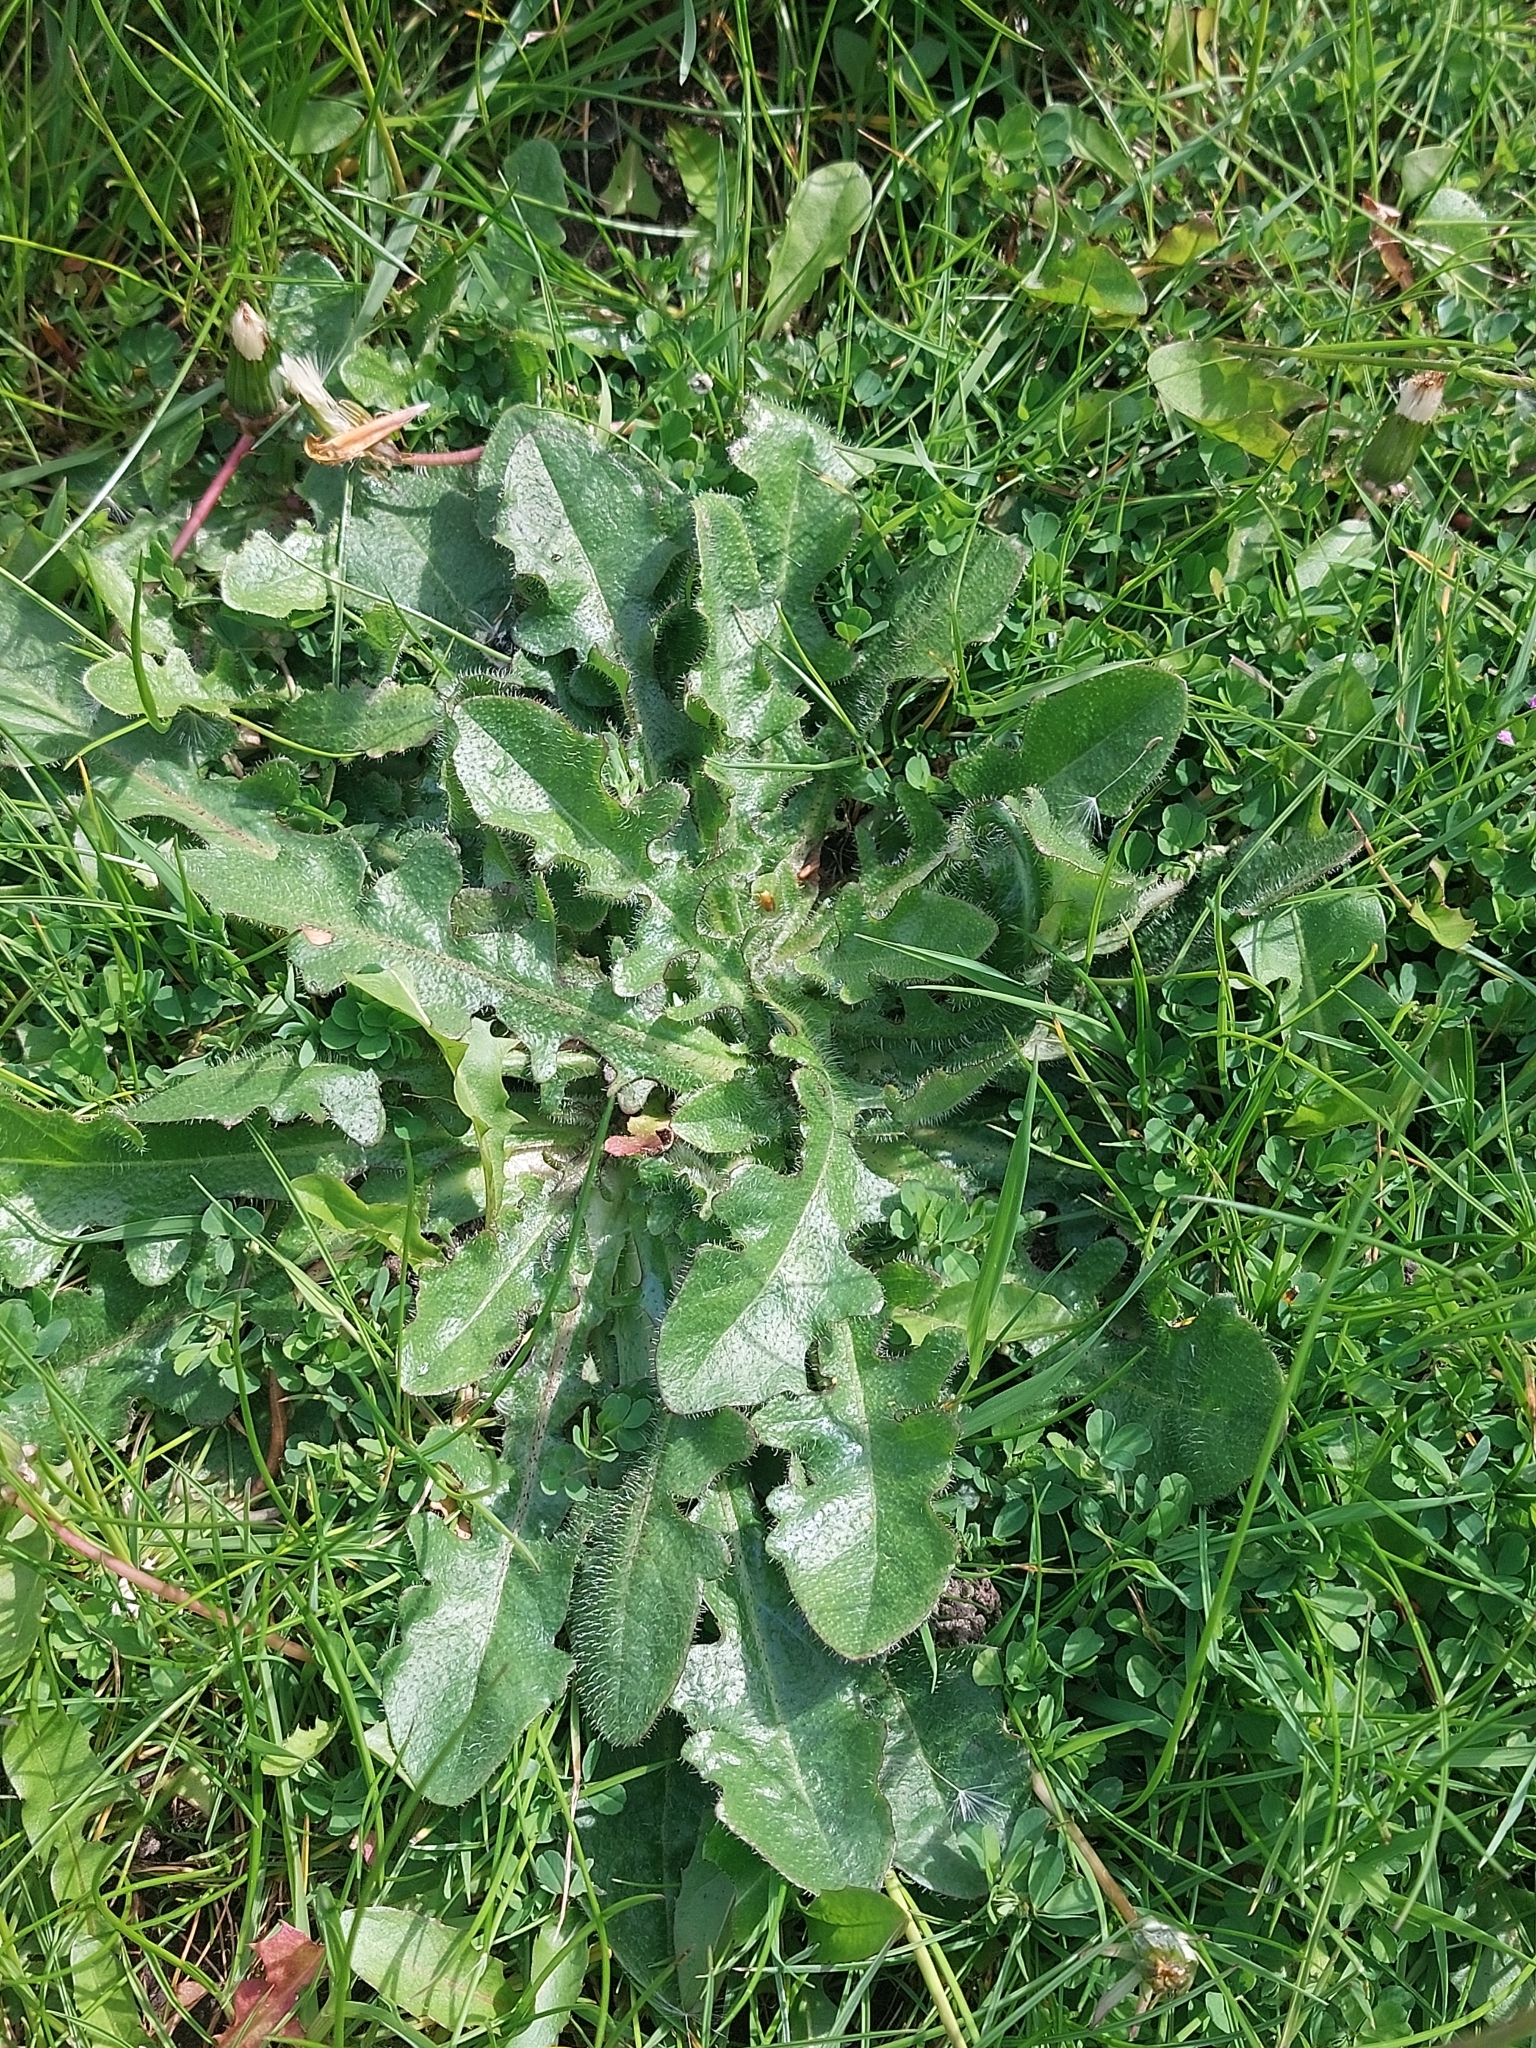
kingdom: Plantae
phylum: Tracheophyta
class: Magnoliopsida
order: Asterales
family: Asteraceae
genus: Hypochaeris
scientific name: Hypochaeris radicata
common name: Flatweed
